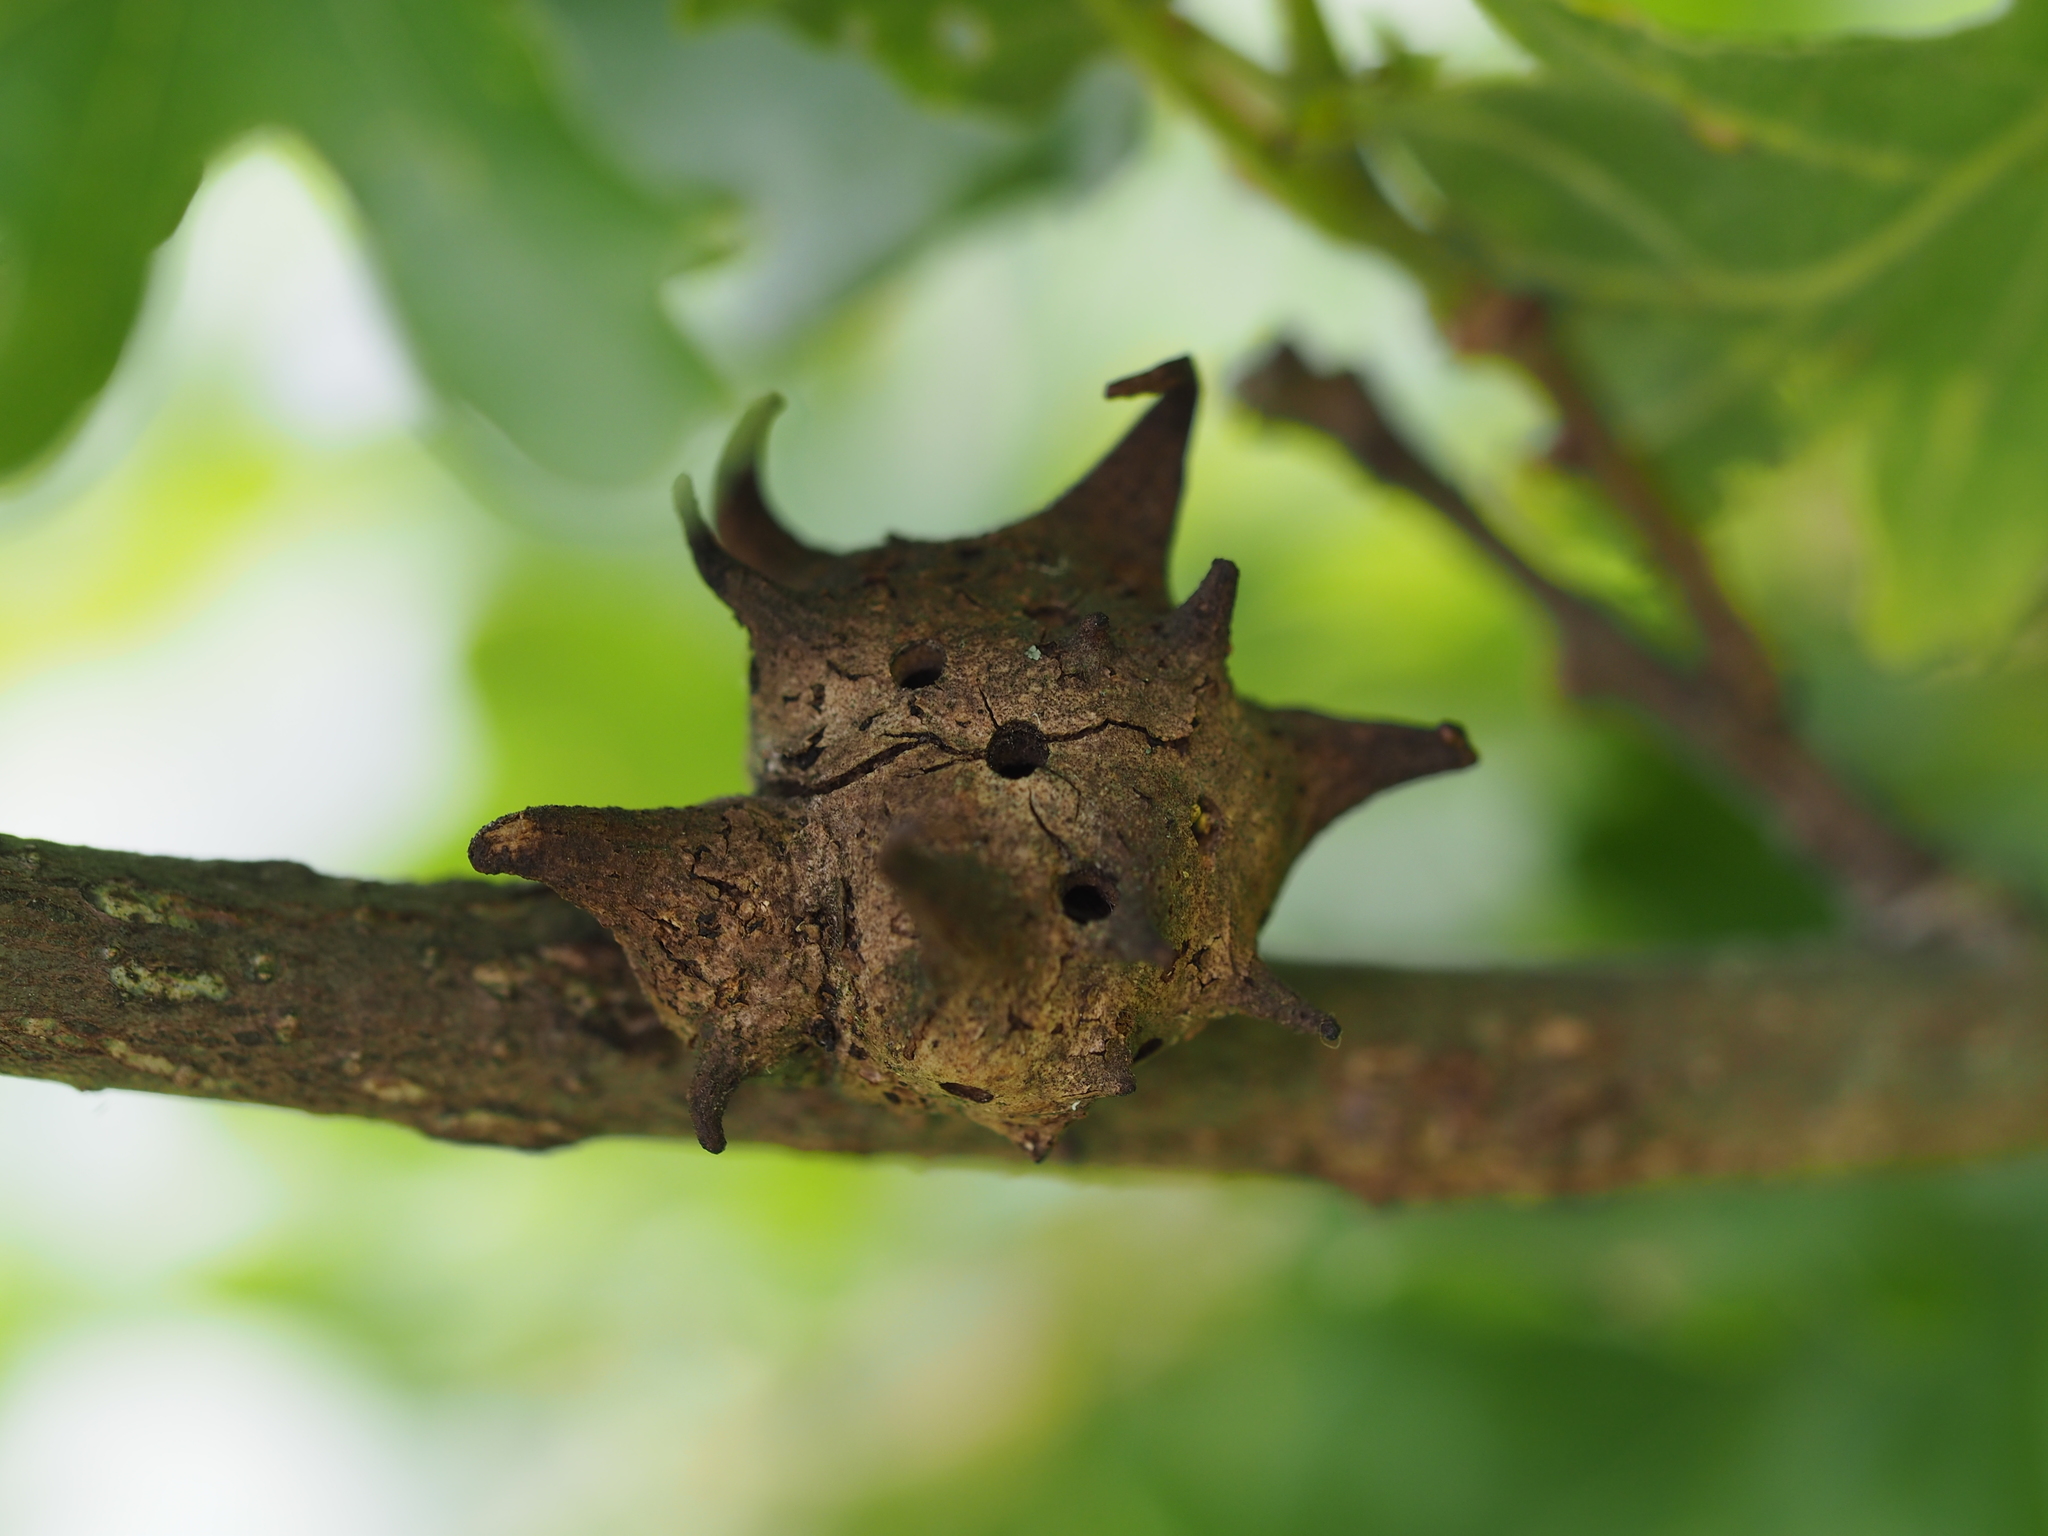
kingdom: Animalia
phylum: Arthropoda
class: Insecta
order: Hymenoptera
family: Cynipidae
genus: Andricus
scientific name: Andricus coriarius
